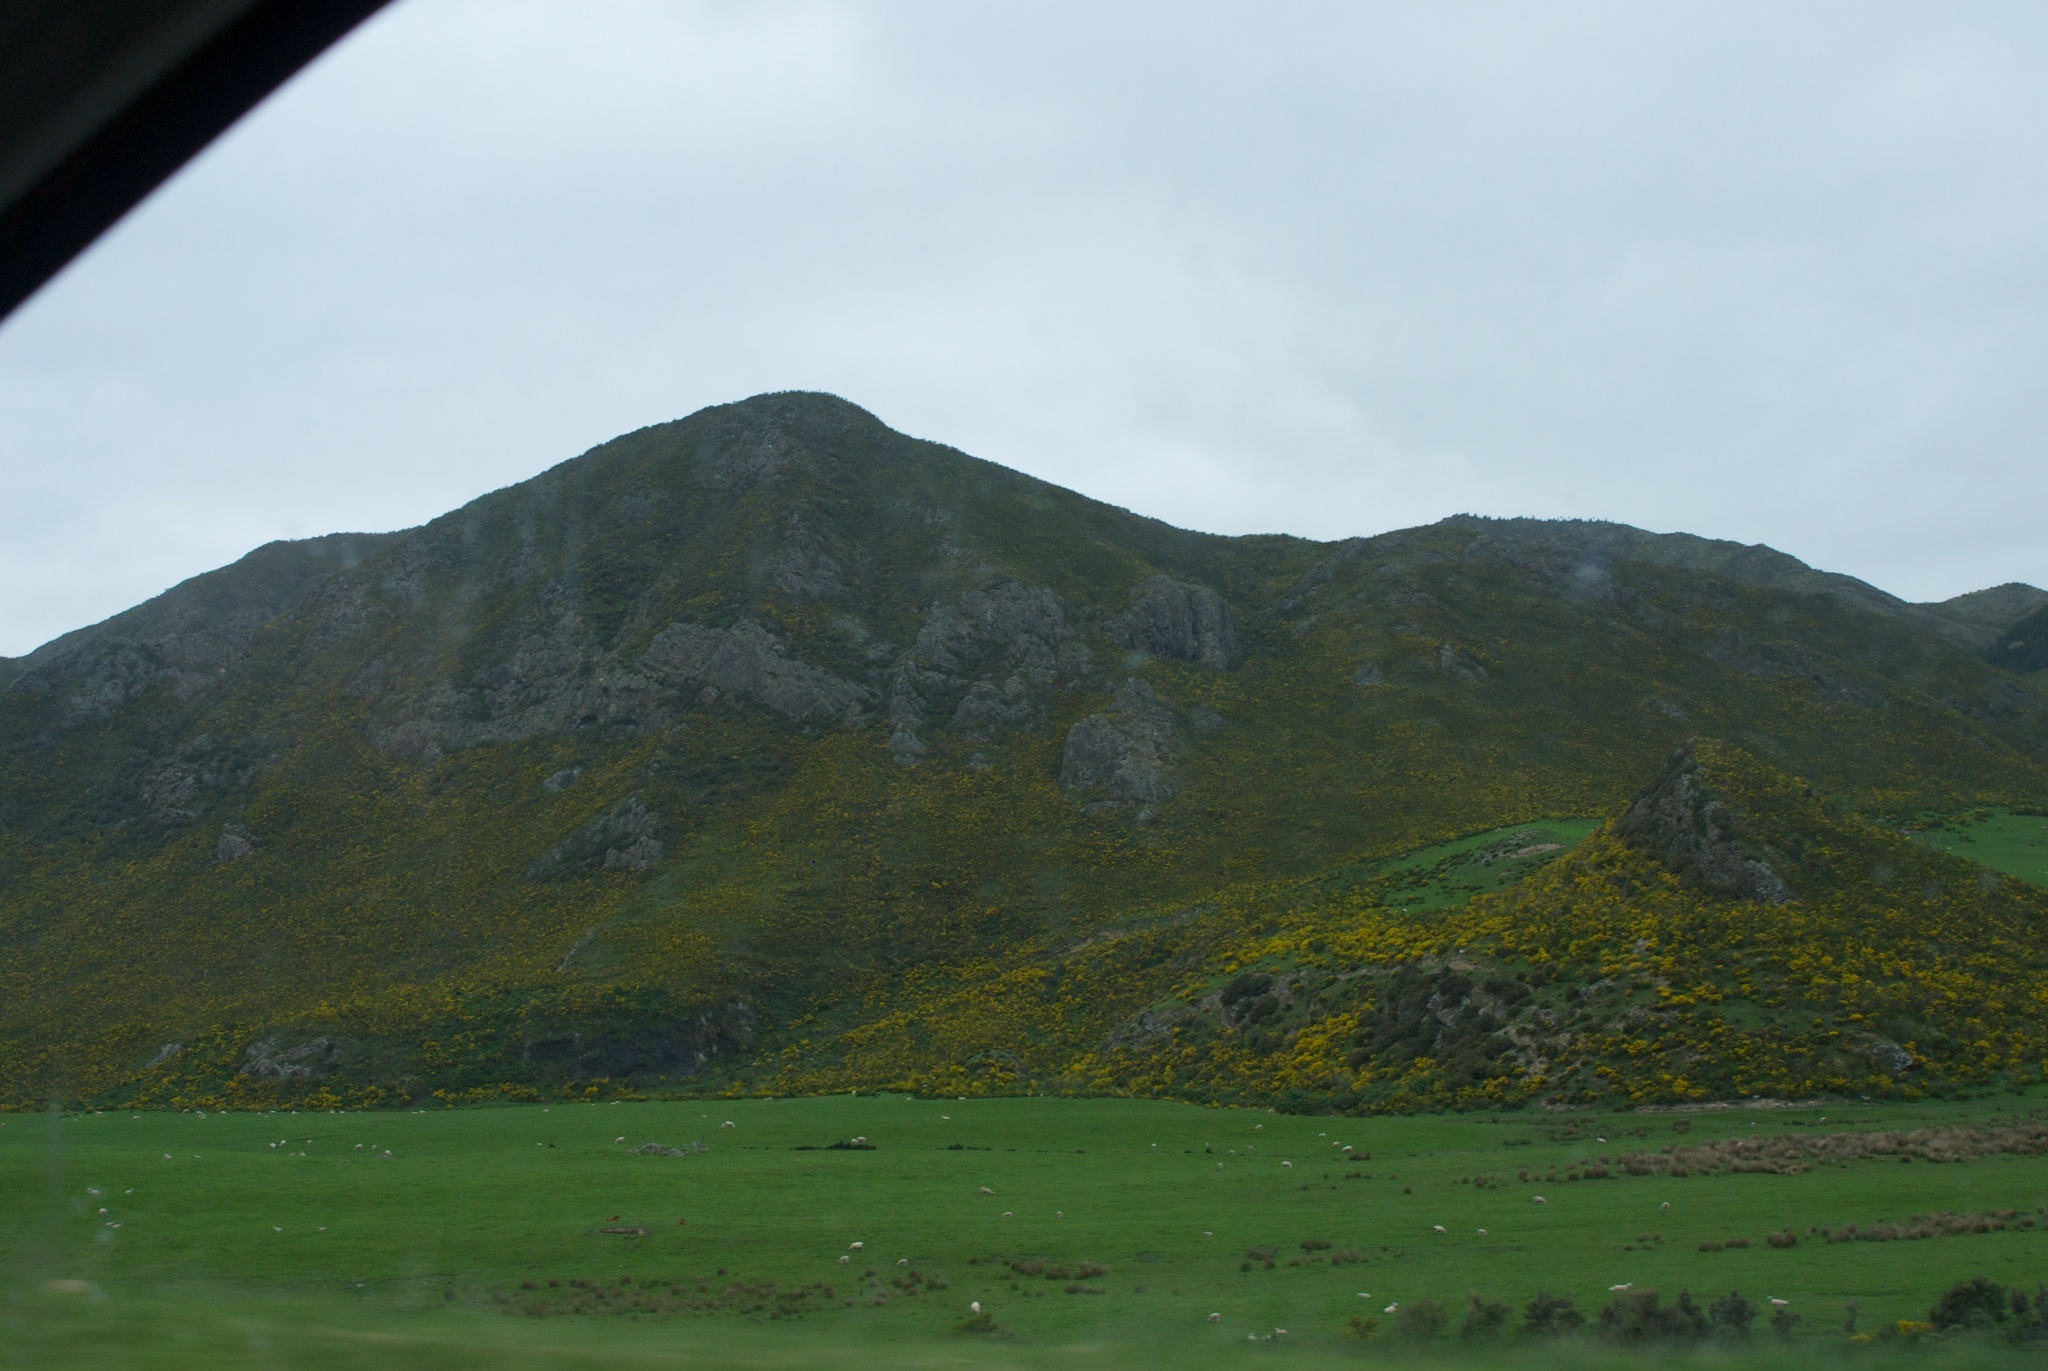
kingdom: Plantae
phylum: Tracheophyta
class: Magnoliopsida
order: Fabales
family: Fabaceae
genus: Cytisus
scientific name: Cytisus scoparius
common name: Scotch broom
